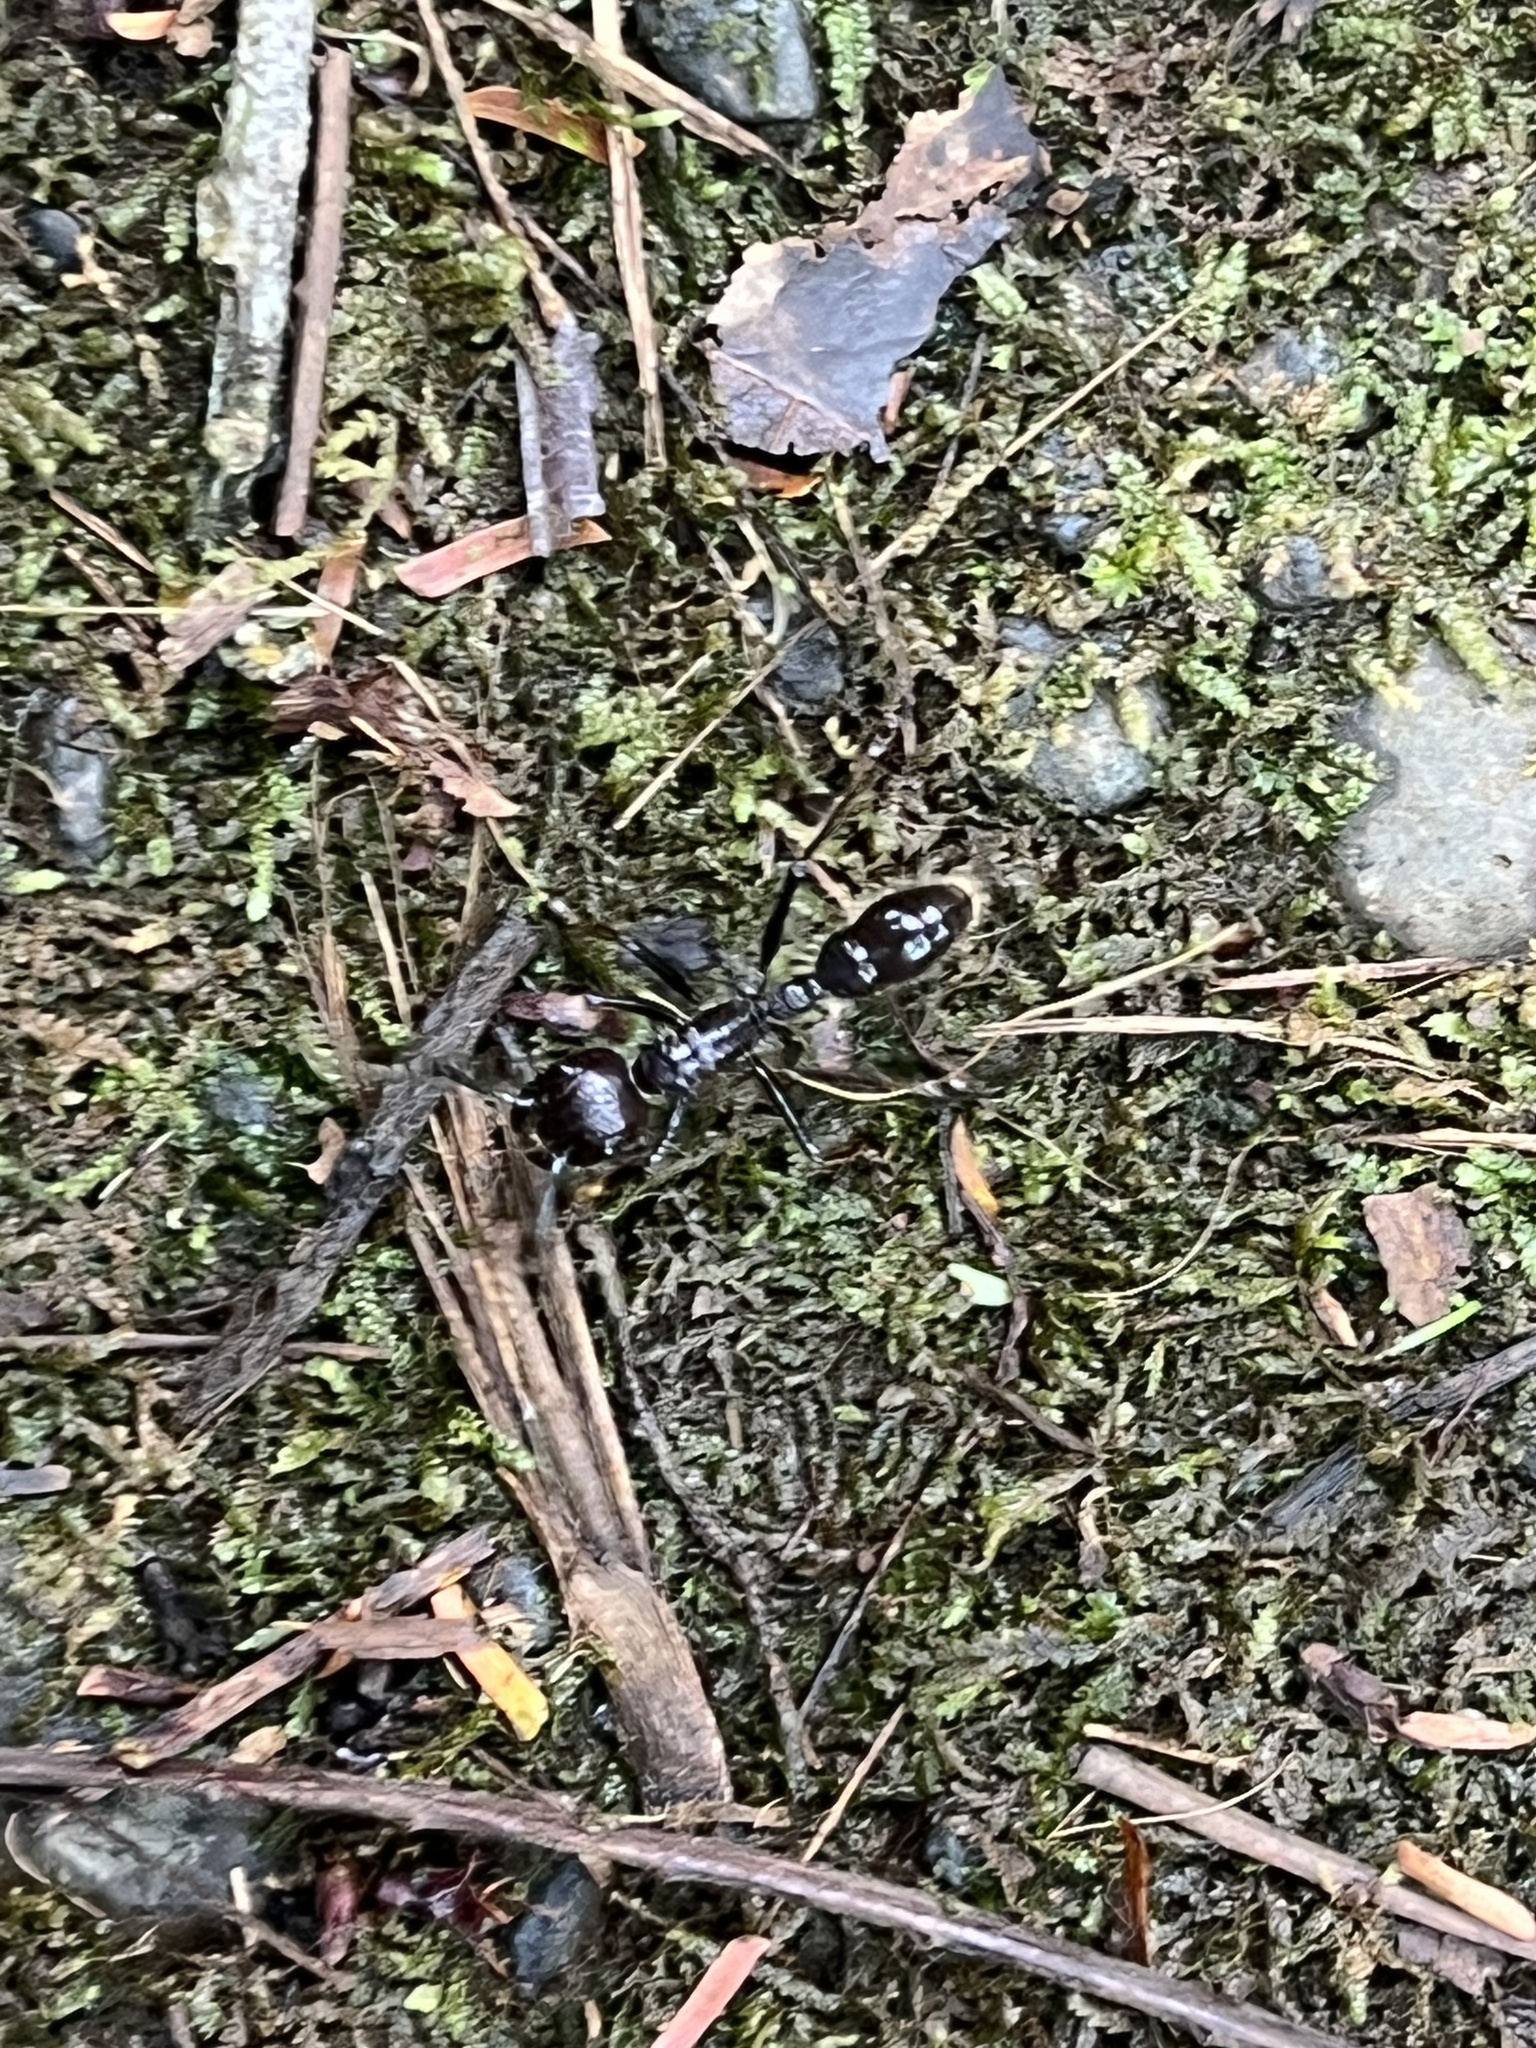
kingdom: Animalia
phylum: Arthropoda
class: Insecta
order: Hymenoptera
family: Formicidae
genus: Paraponera
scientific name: Paraponera clavata
